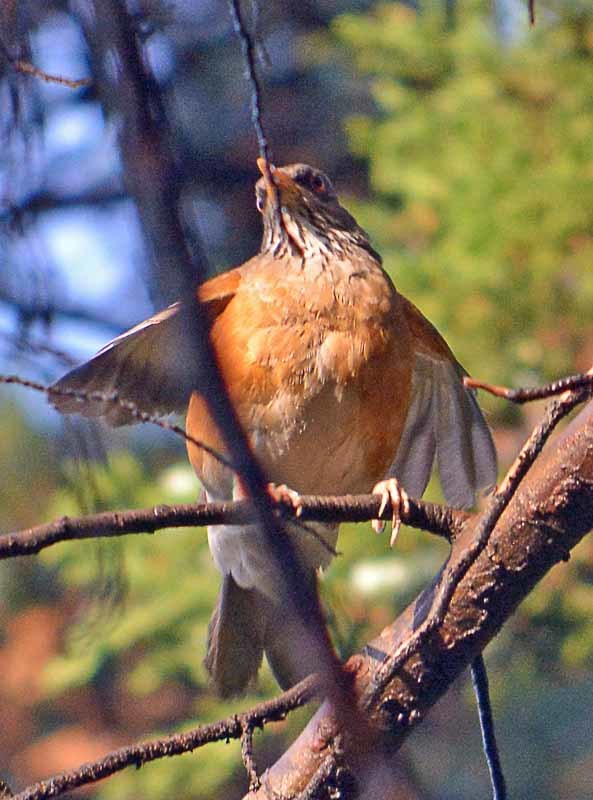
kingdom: Animalia
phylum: Chordata
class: Aves
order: Passeriformes
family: Turdidae
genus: Turdus
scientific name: Turdus rufopalliatus
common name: Rufous-backed robin
